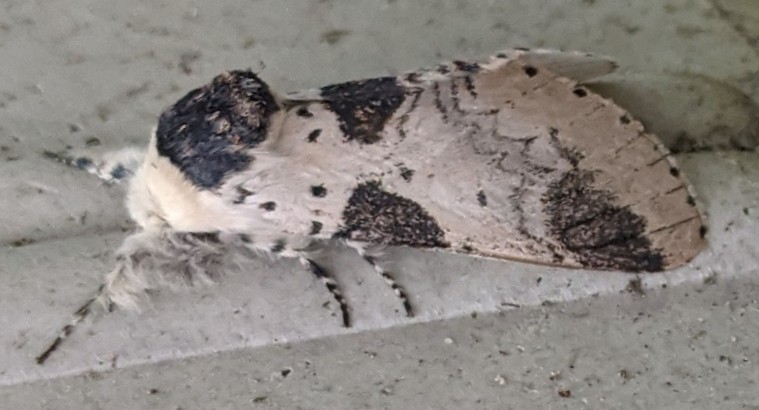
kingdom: Animalia
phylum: Arthropoda
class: Insecta
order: Lepidoptera
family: Notodontidae
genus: Furcula
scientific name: Furcula modesta
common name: Modest furcula moth
